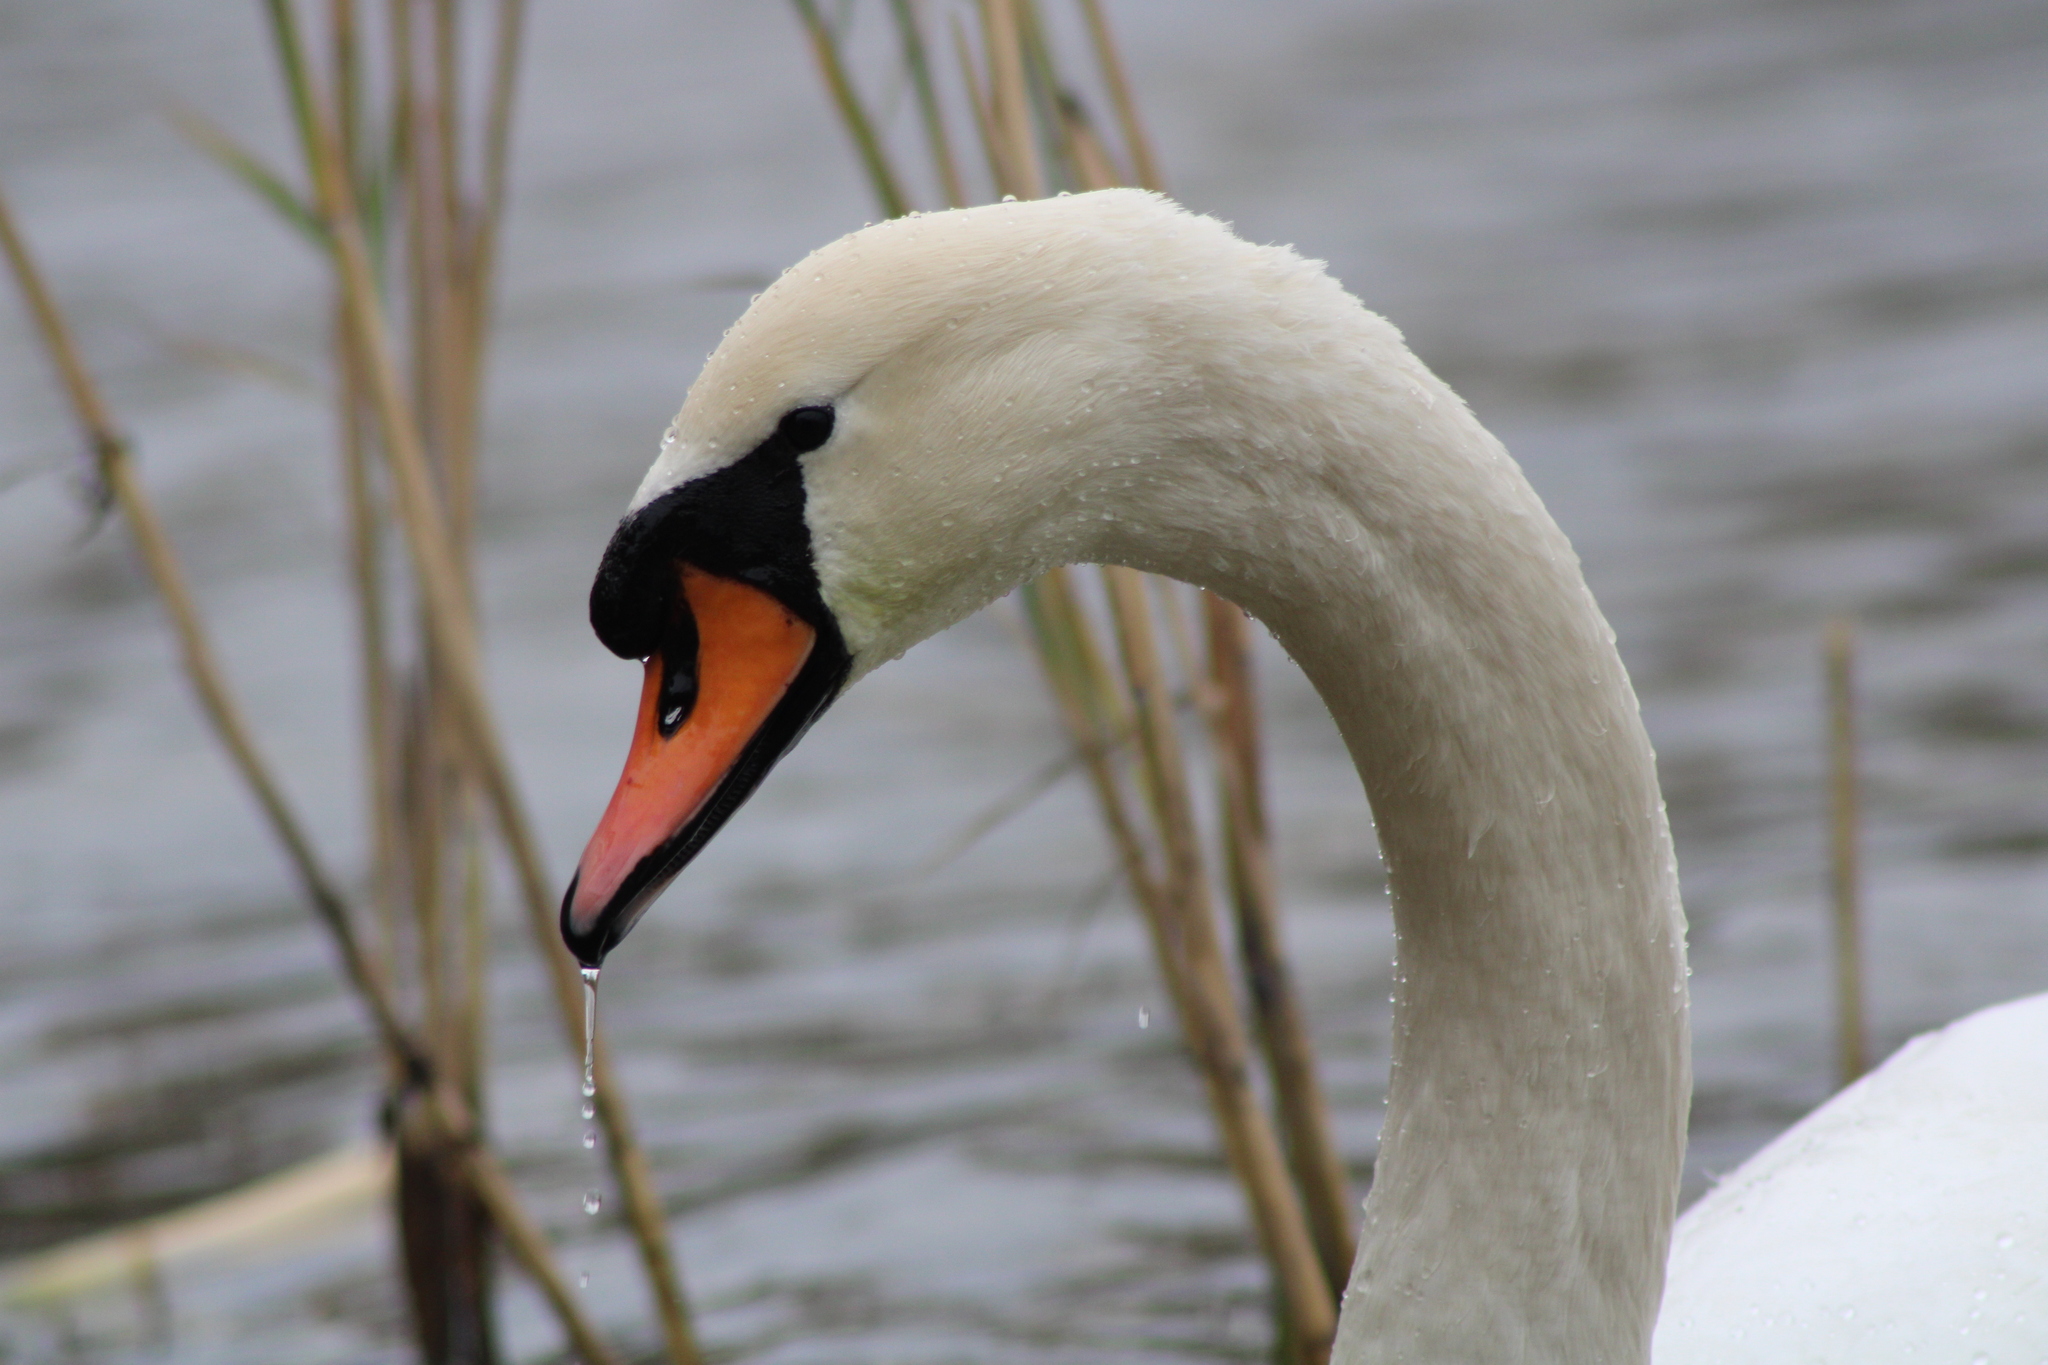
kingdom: Animalia
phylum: Chordata
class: Aves
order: Anseriformes
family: Anatidae
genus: Cygnus
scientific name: Cygnus olor
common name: Mute swan
